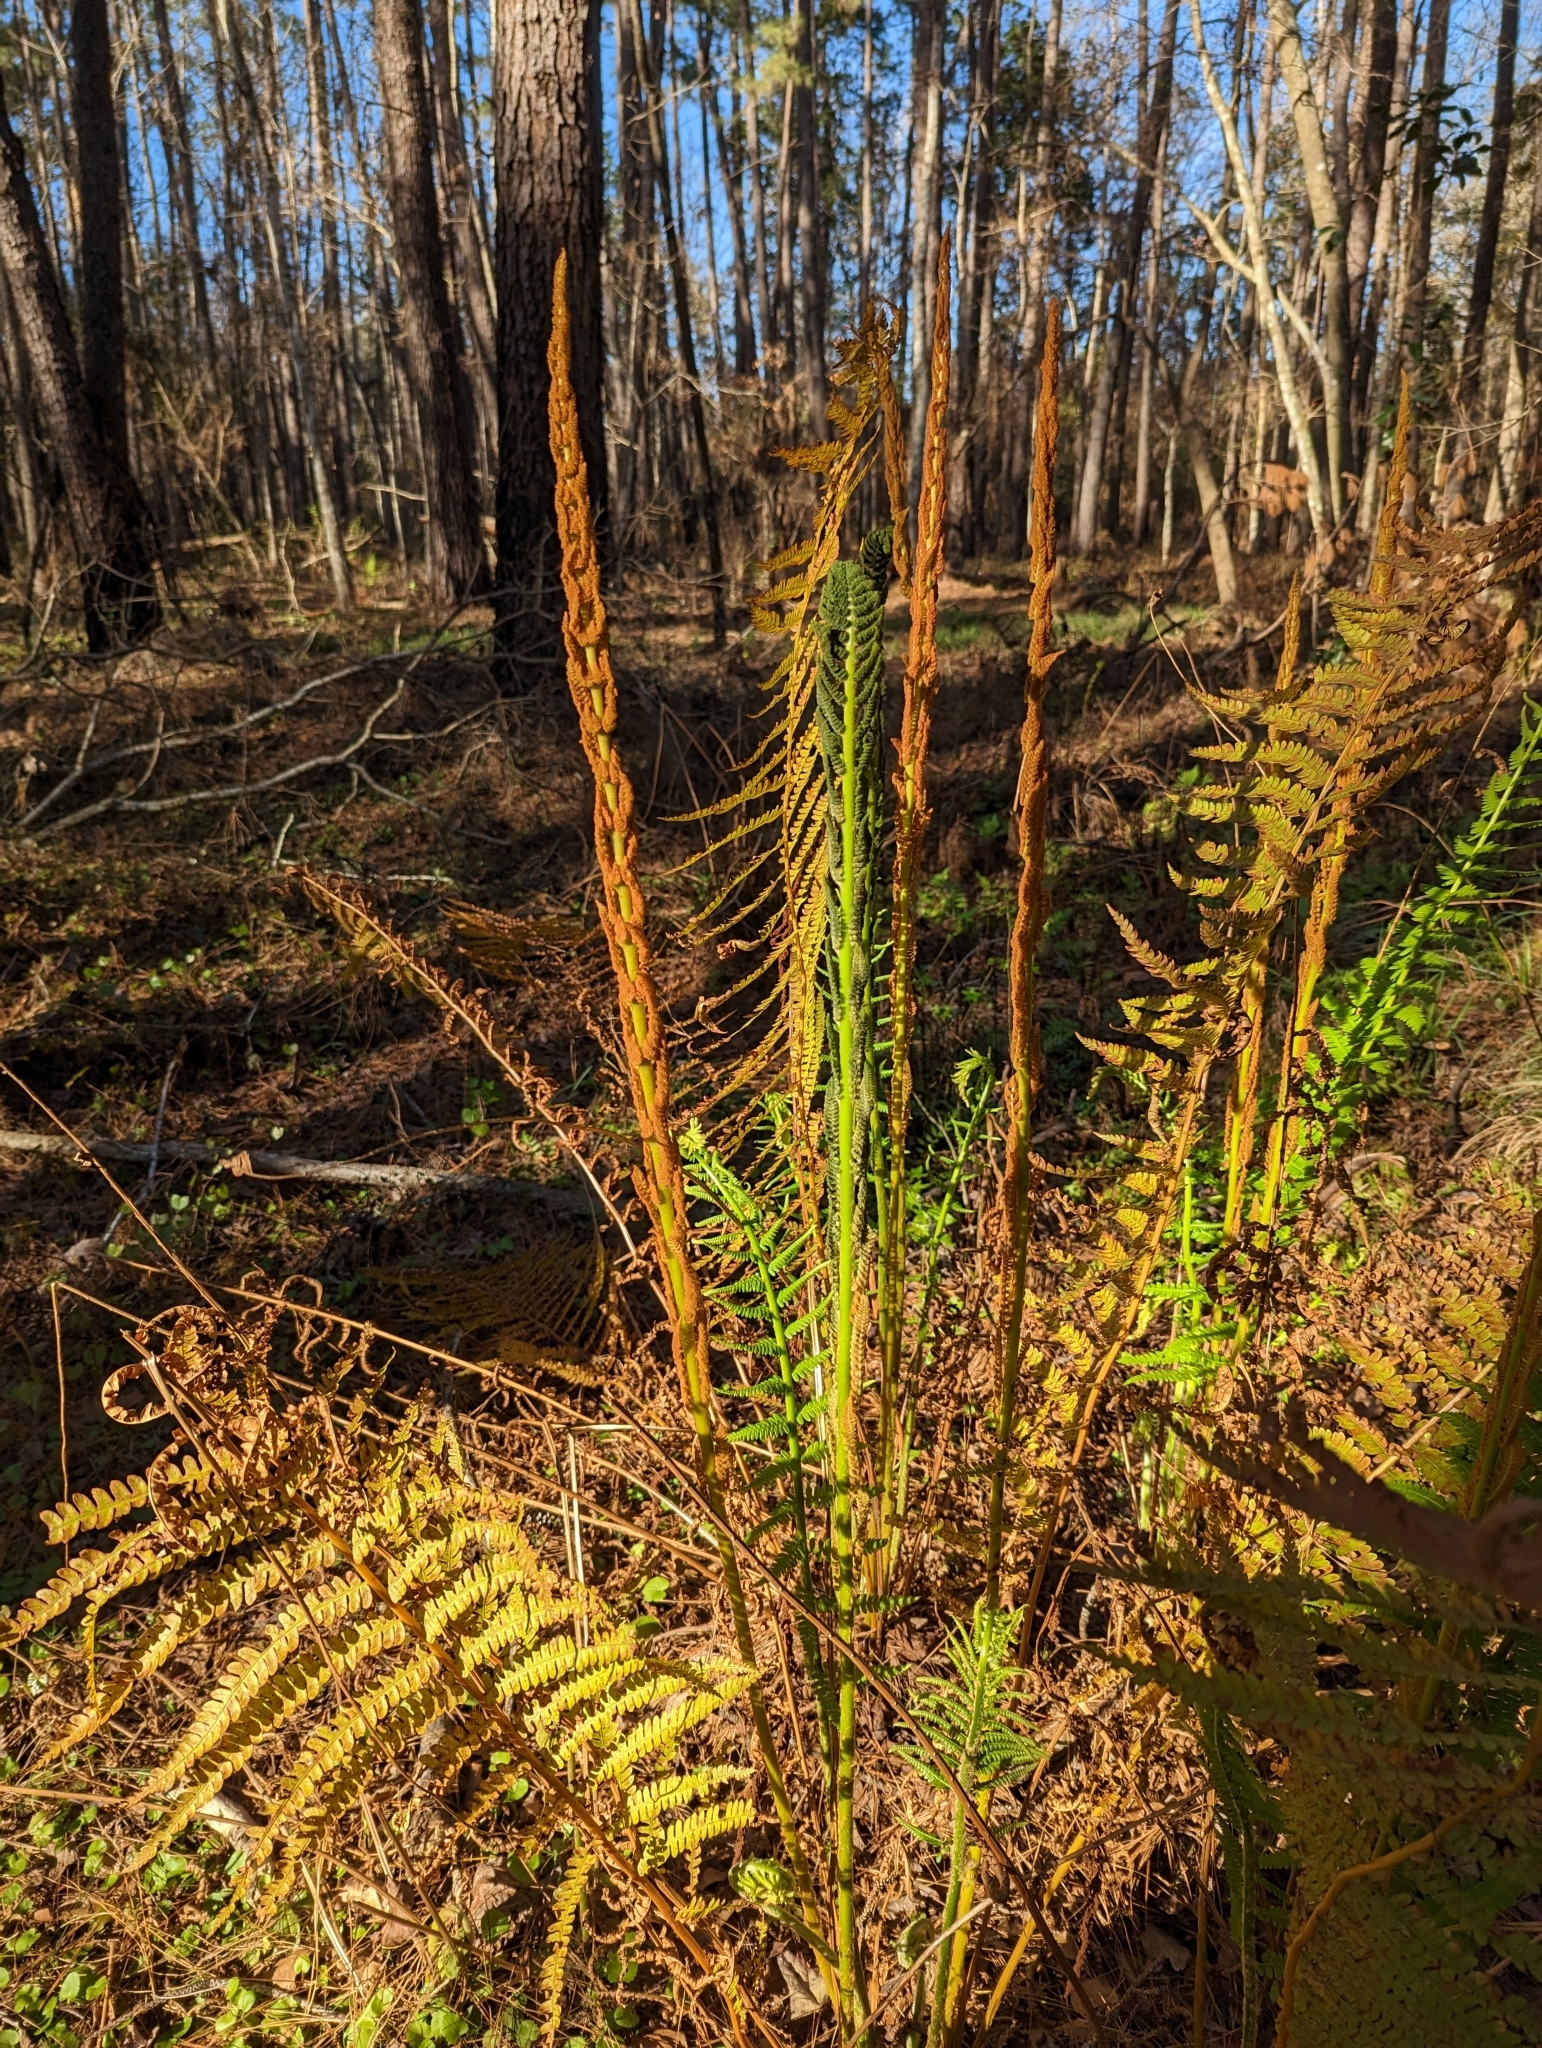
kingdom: Plantae
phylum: Tracheophyta
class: Polypodiopsida
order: Osmundales
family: Osmundaceae
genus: Osmundastrum
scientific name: Osmundastrum cinnamomeum
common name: Cinnamon fern
